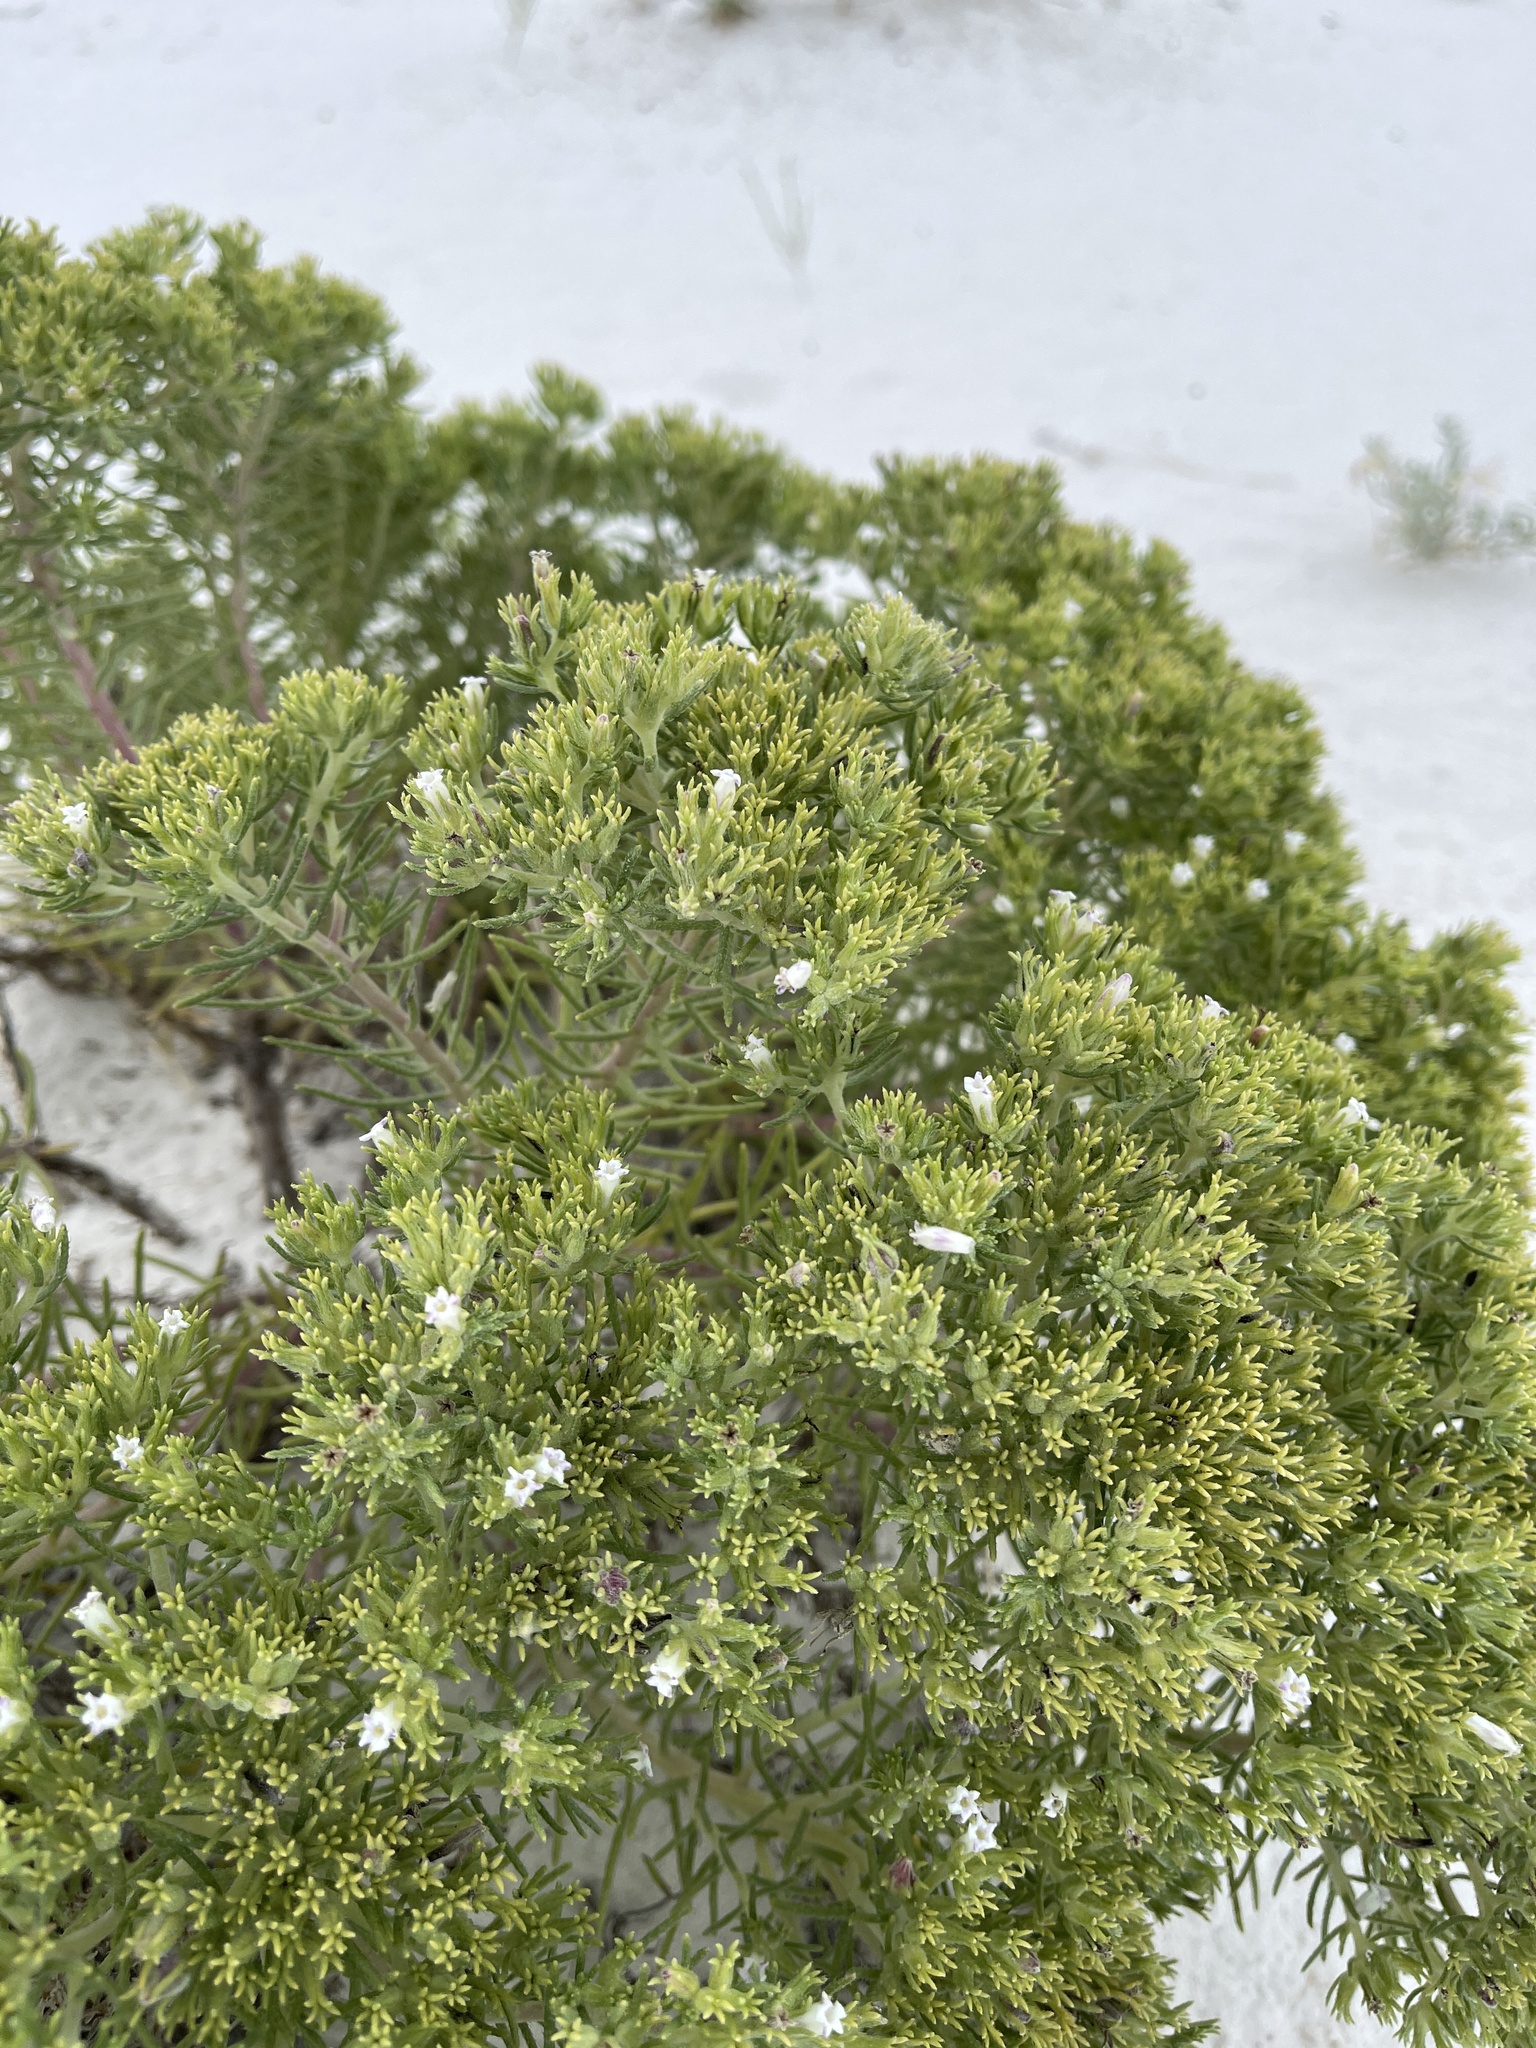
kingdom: Plantae
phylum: Tracheophyta
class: Magnoliopsida
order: Boraginales
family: Namaceae
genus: Andropus
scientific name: Andropus carnosus
